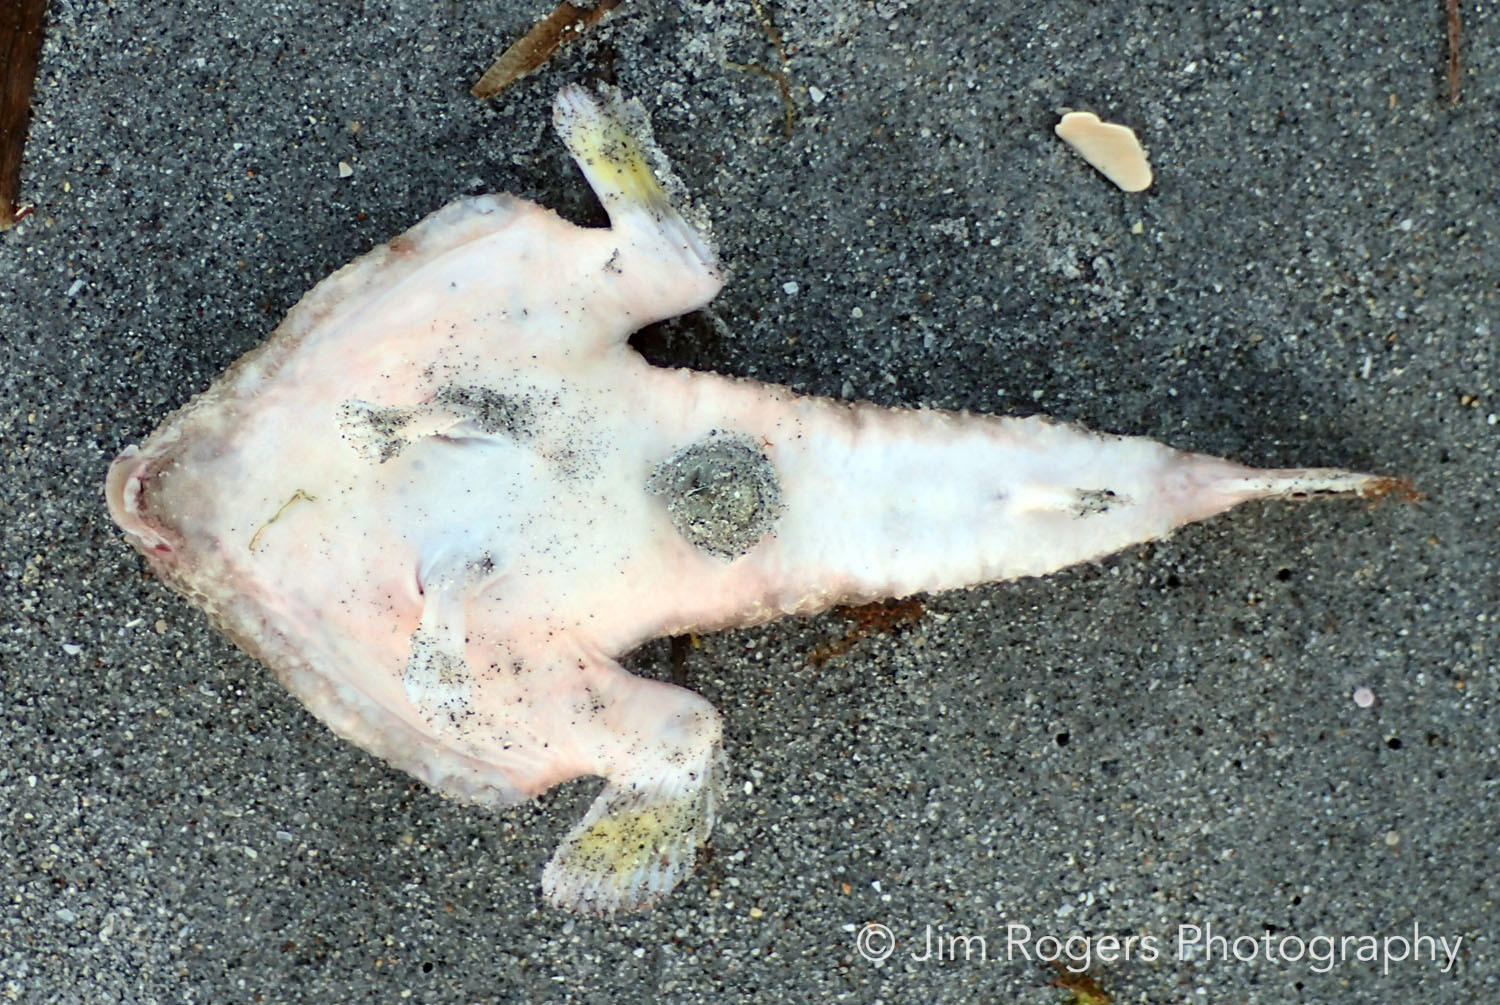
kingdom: Animalia
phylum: Chordata
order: Lophiiformes
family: Ogcocephalidae
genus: Ogcocephalus
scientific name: Ogcocephalus cubifrons
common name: Polka-dot batfish
